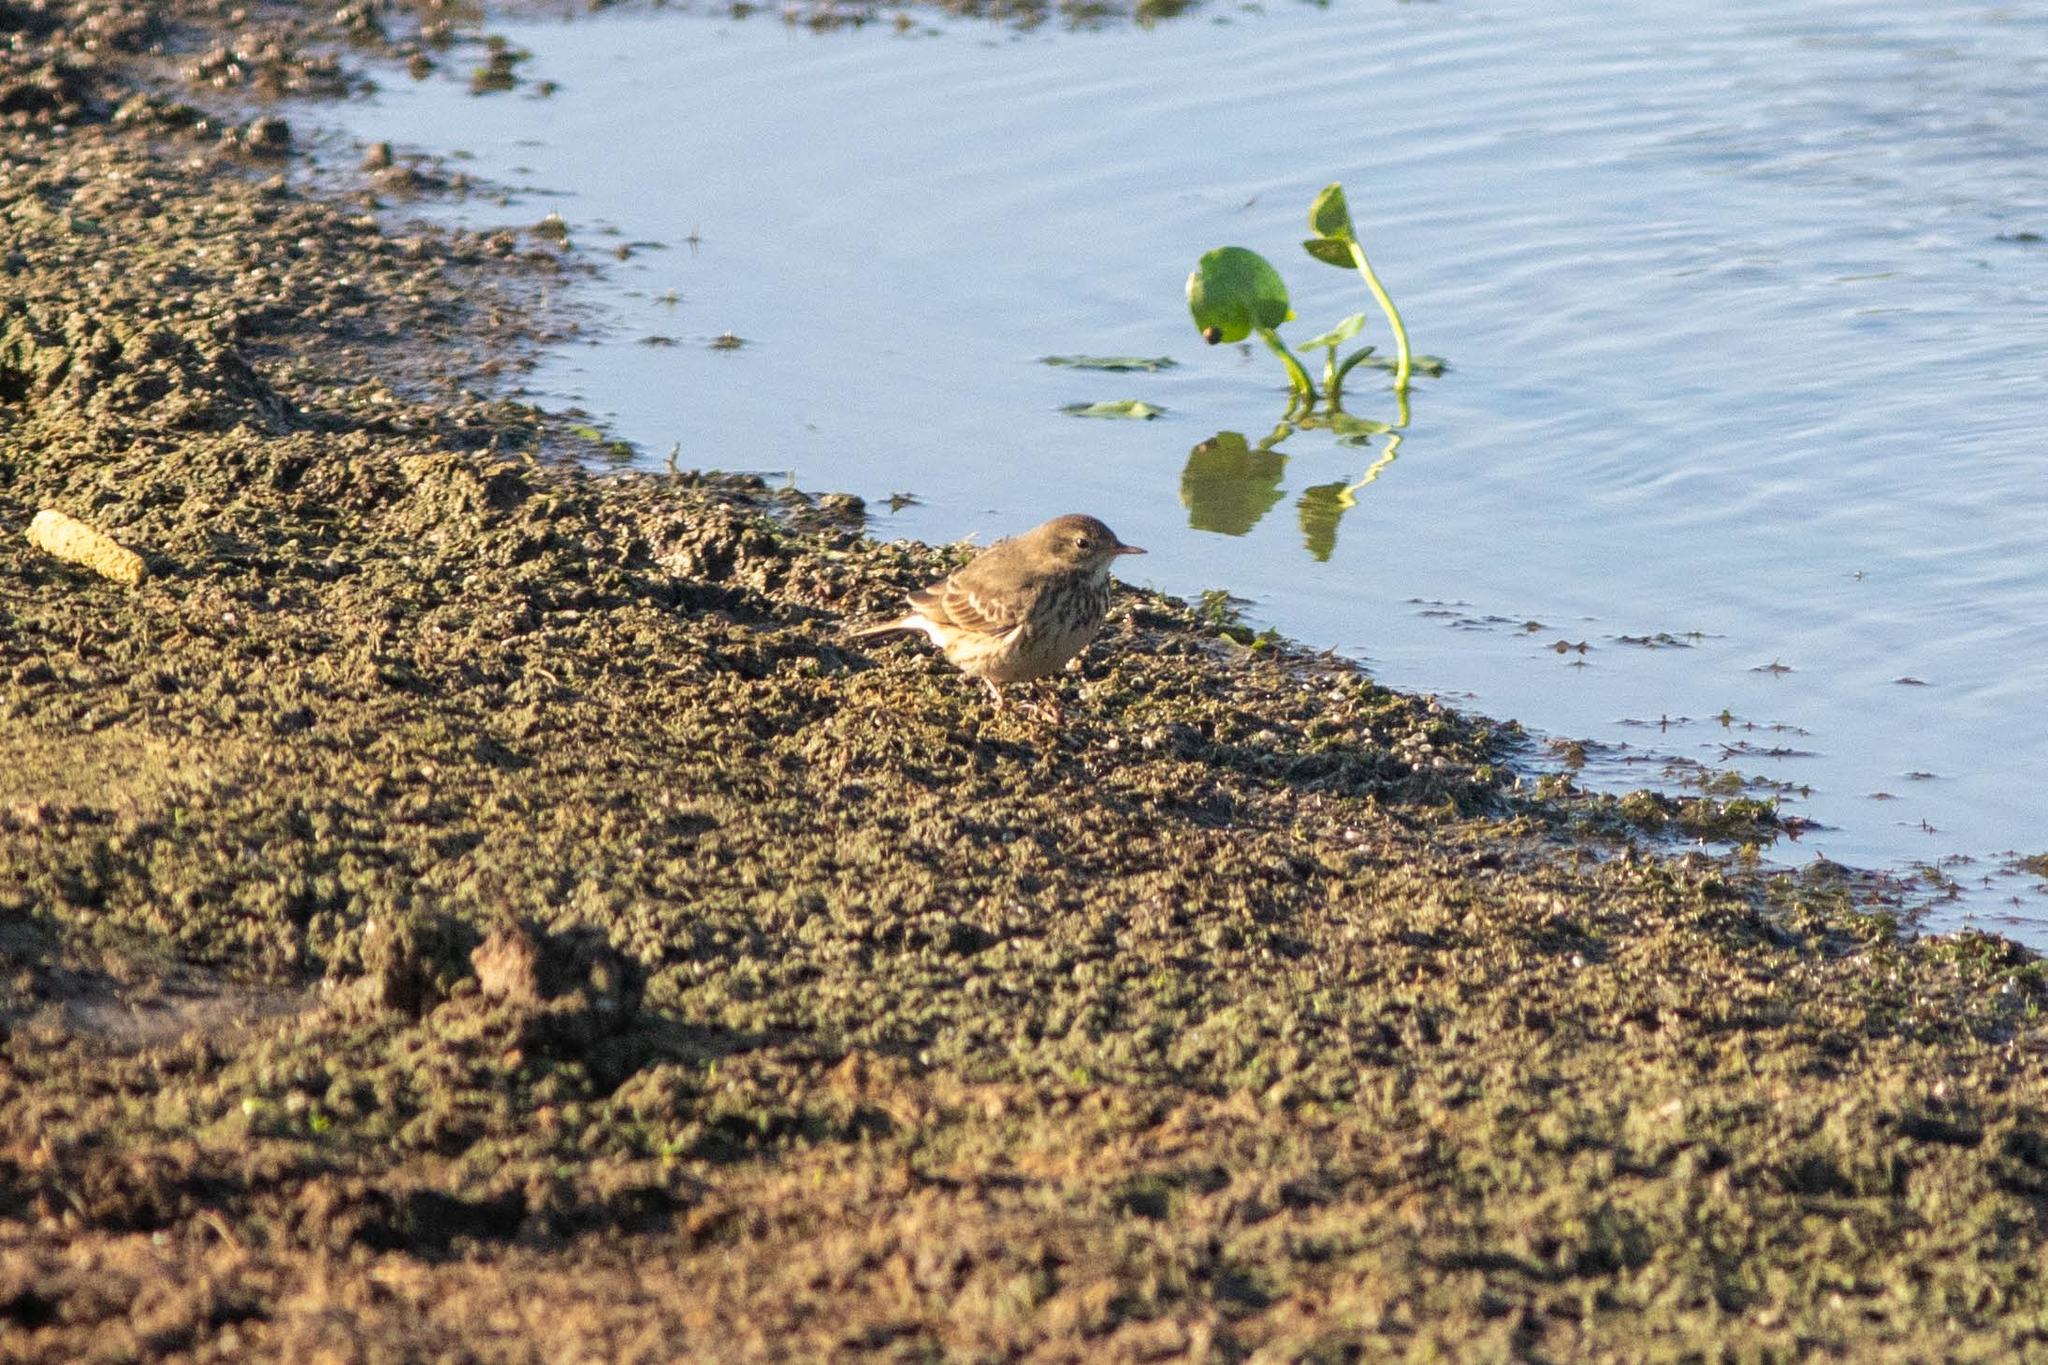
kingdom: Animalia
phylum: Chordata
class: Aves
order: Passeriformes
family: Motacillidae
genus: Anthus
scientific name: Anthus rubescens
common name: Buff-bellied pipit
